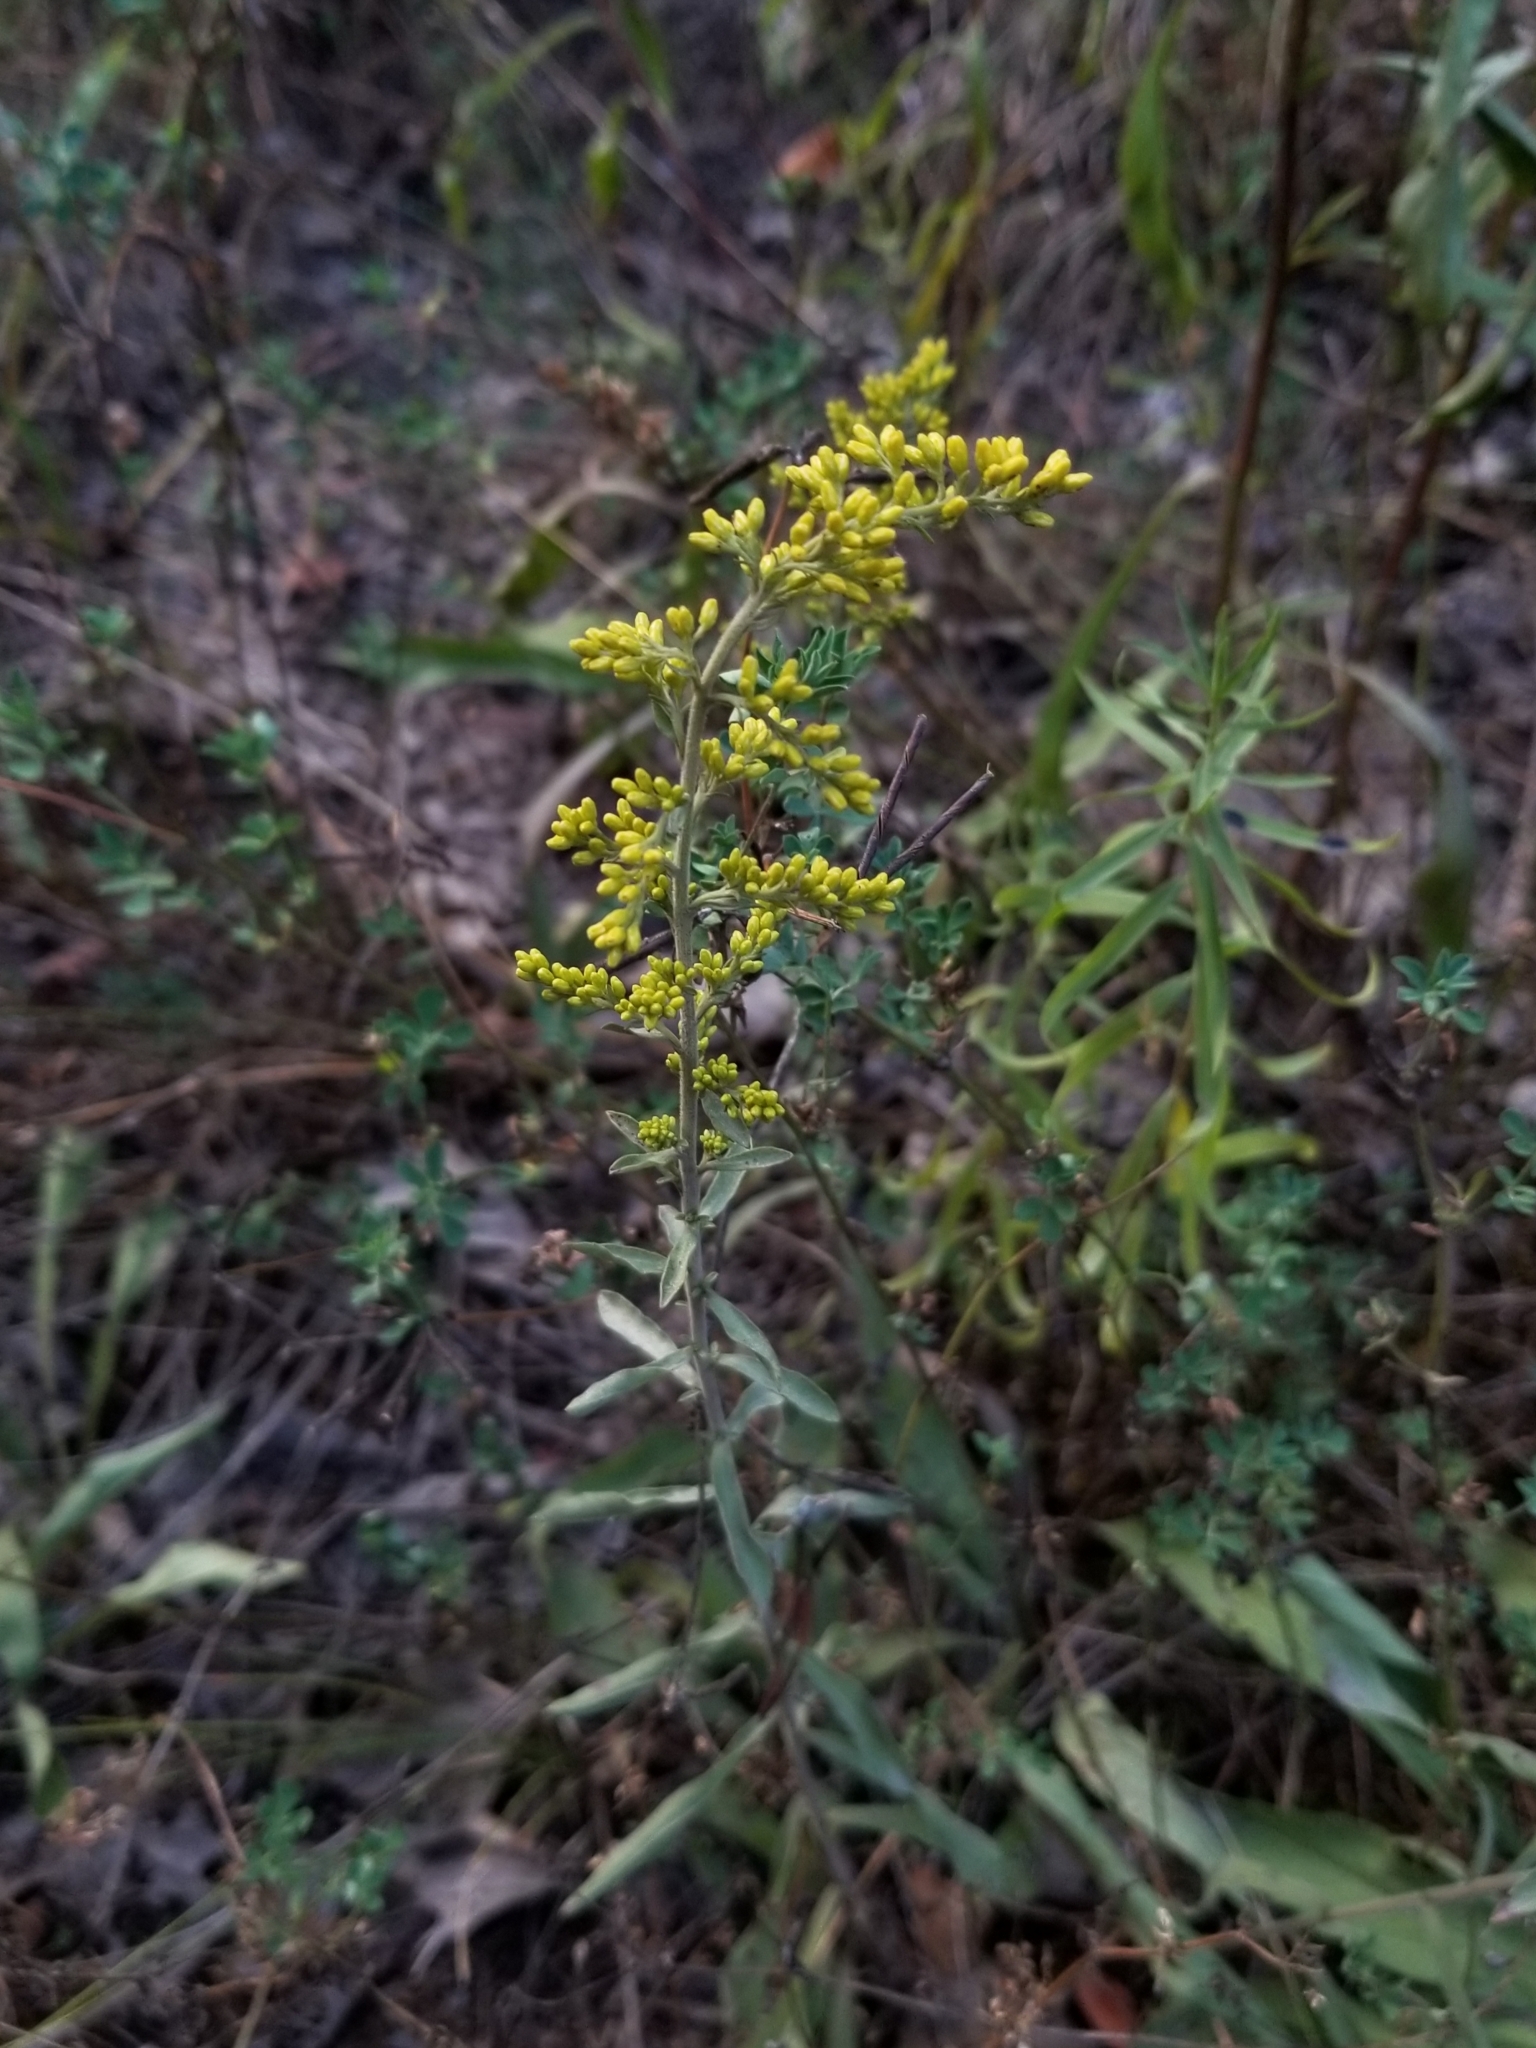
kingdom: Plantae
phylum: Tracheophyta
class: Magnoliopsida
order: Asterales
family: Asteraceae
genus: Solidago
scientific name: Solidago nemoralis
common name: Grey goldenrod
